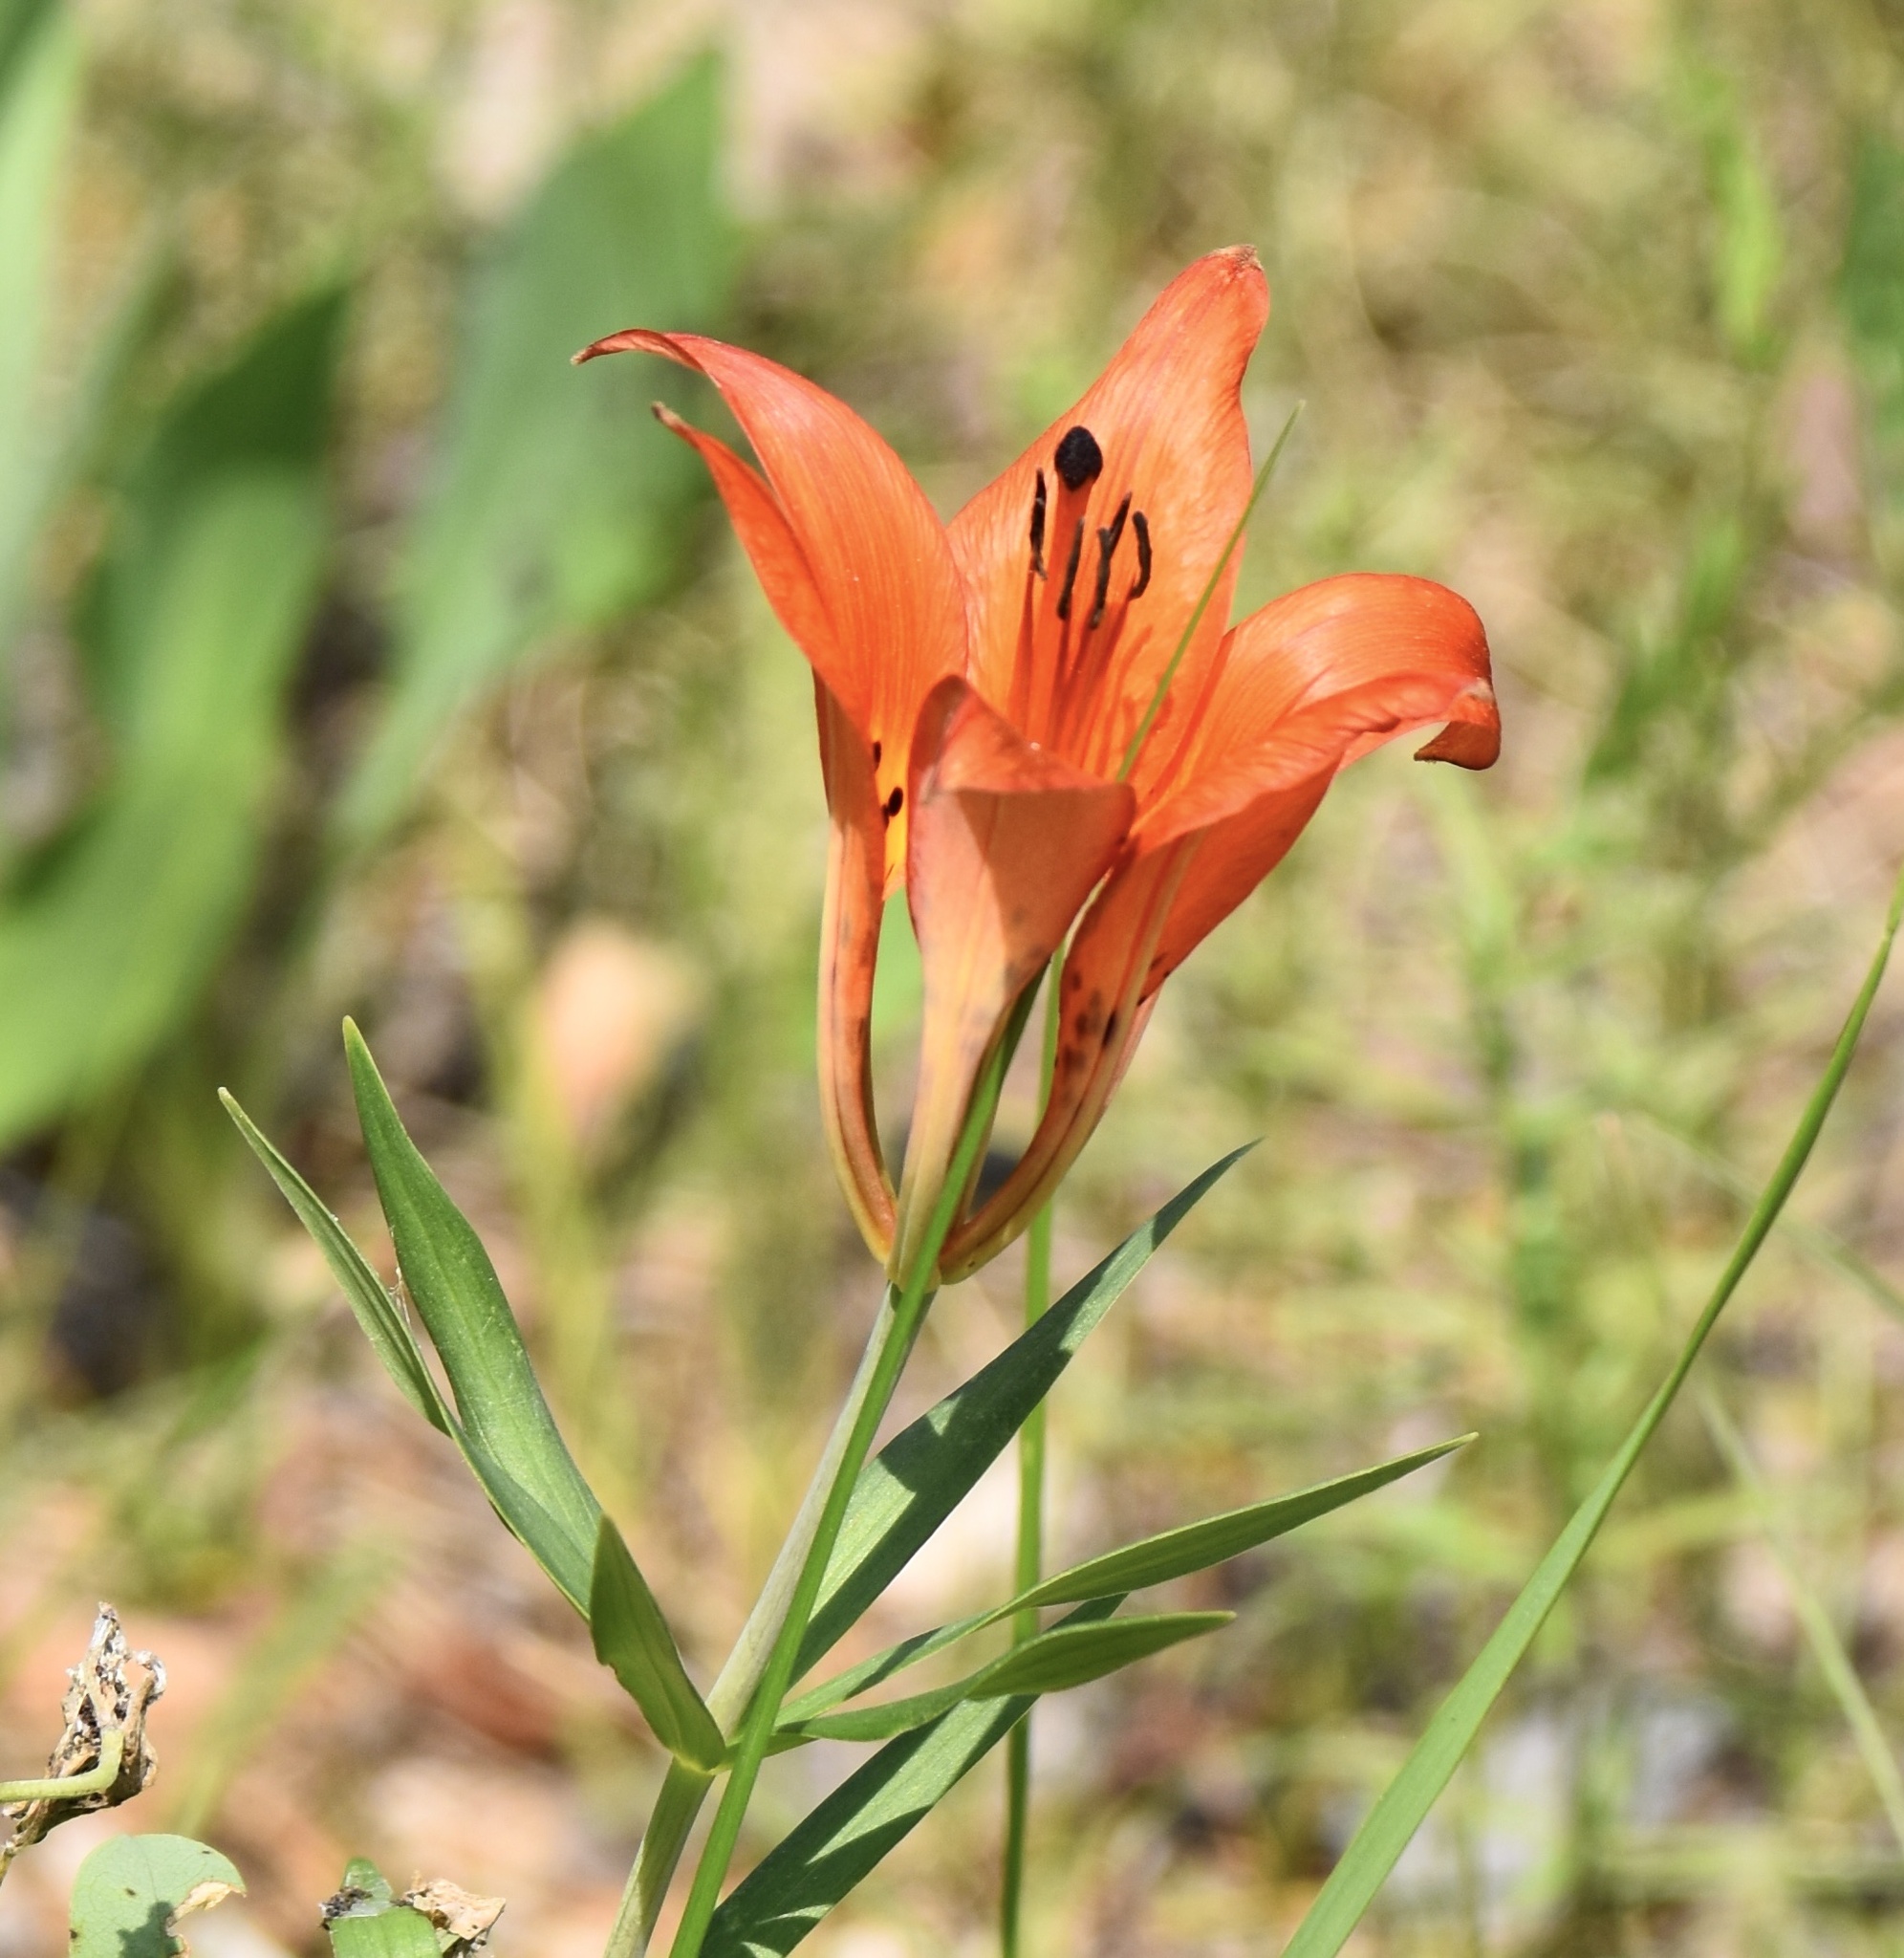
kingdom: Plantae
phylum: Tracheophyta
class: Liliopsida
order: Liliales
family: Liliaceae
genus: Lilium
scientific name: Lilium philadelphicum
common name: Red lily
